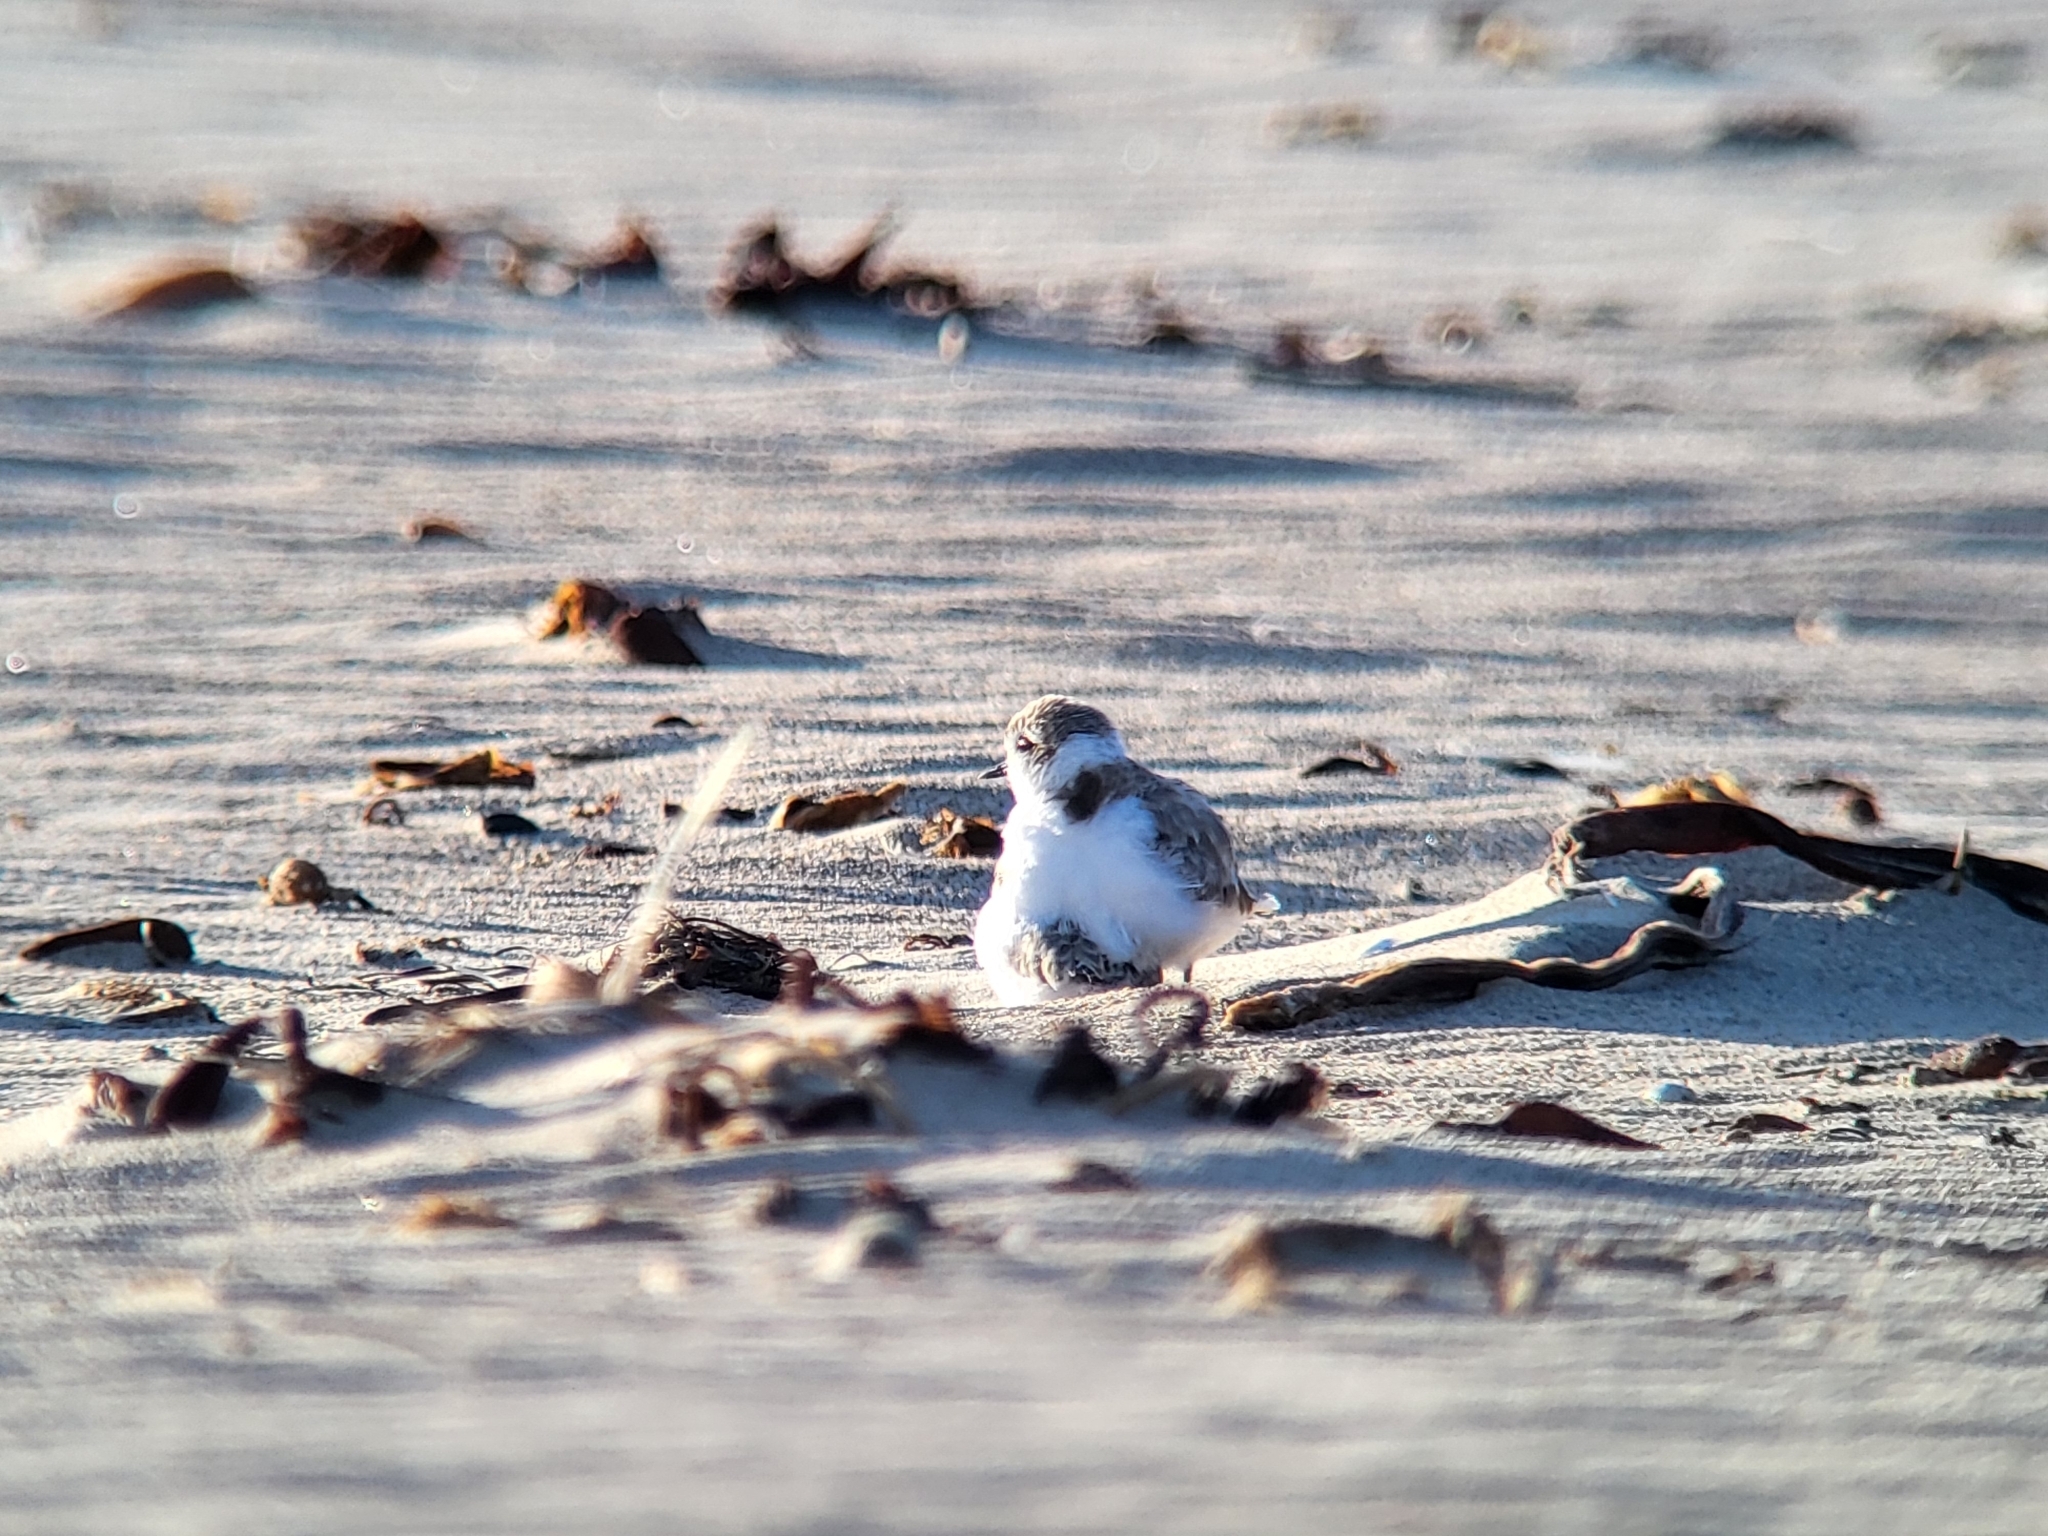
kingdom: Animalia
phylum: Chordata
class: Aves
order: Charadriiformes
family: Charadriidae
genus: Anarhynchus
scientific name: Anarhynchus
